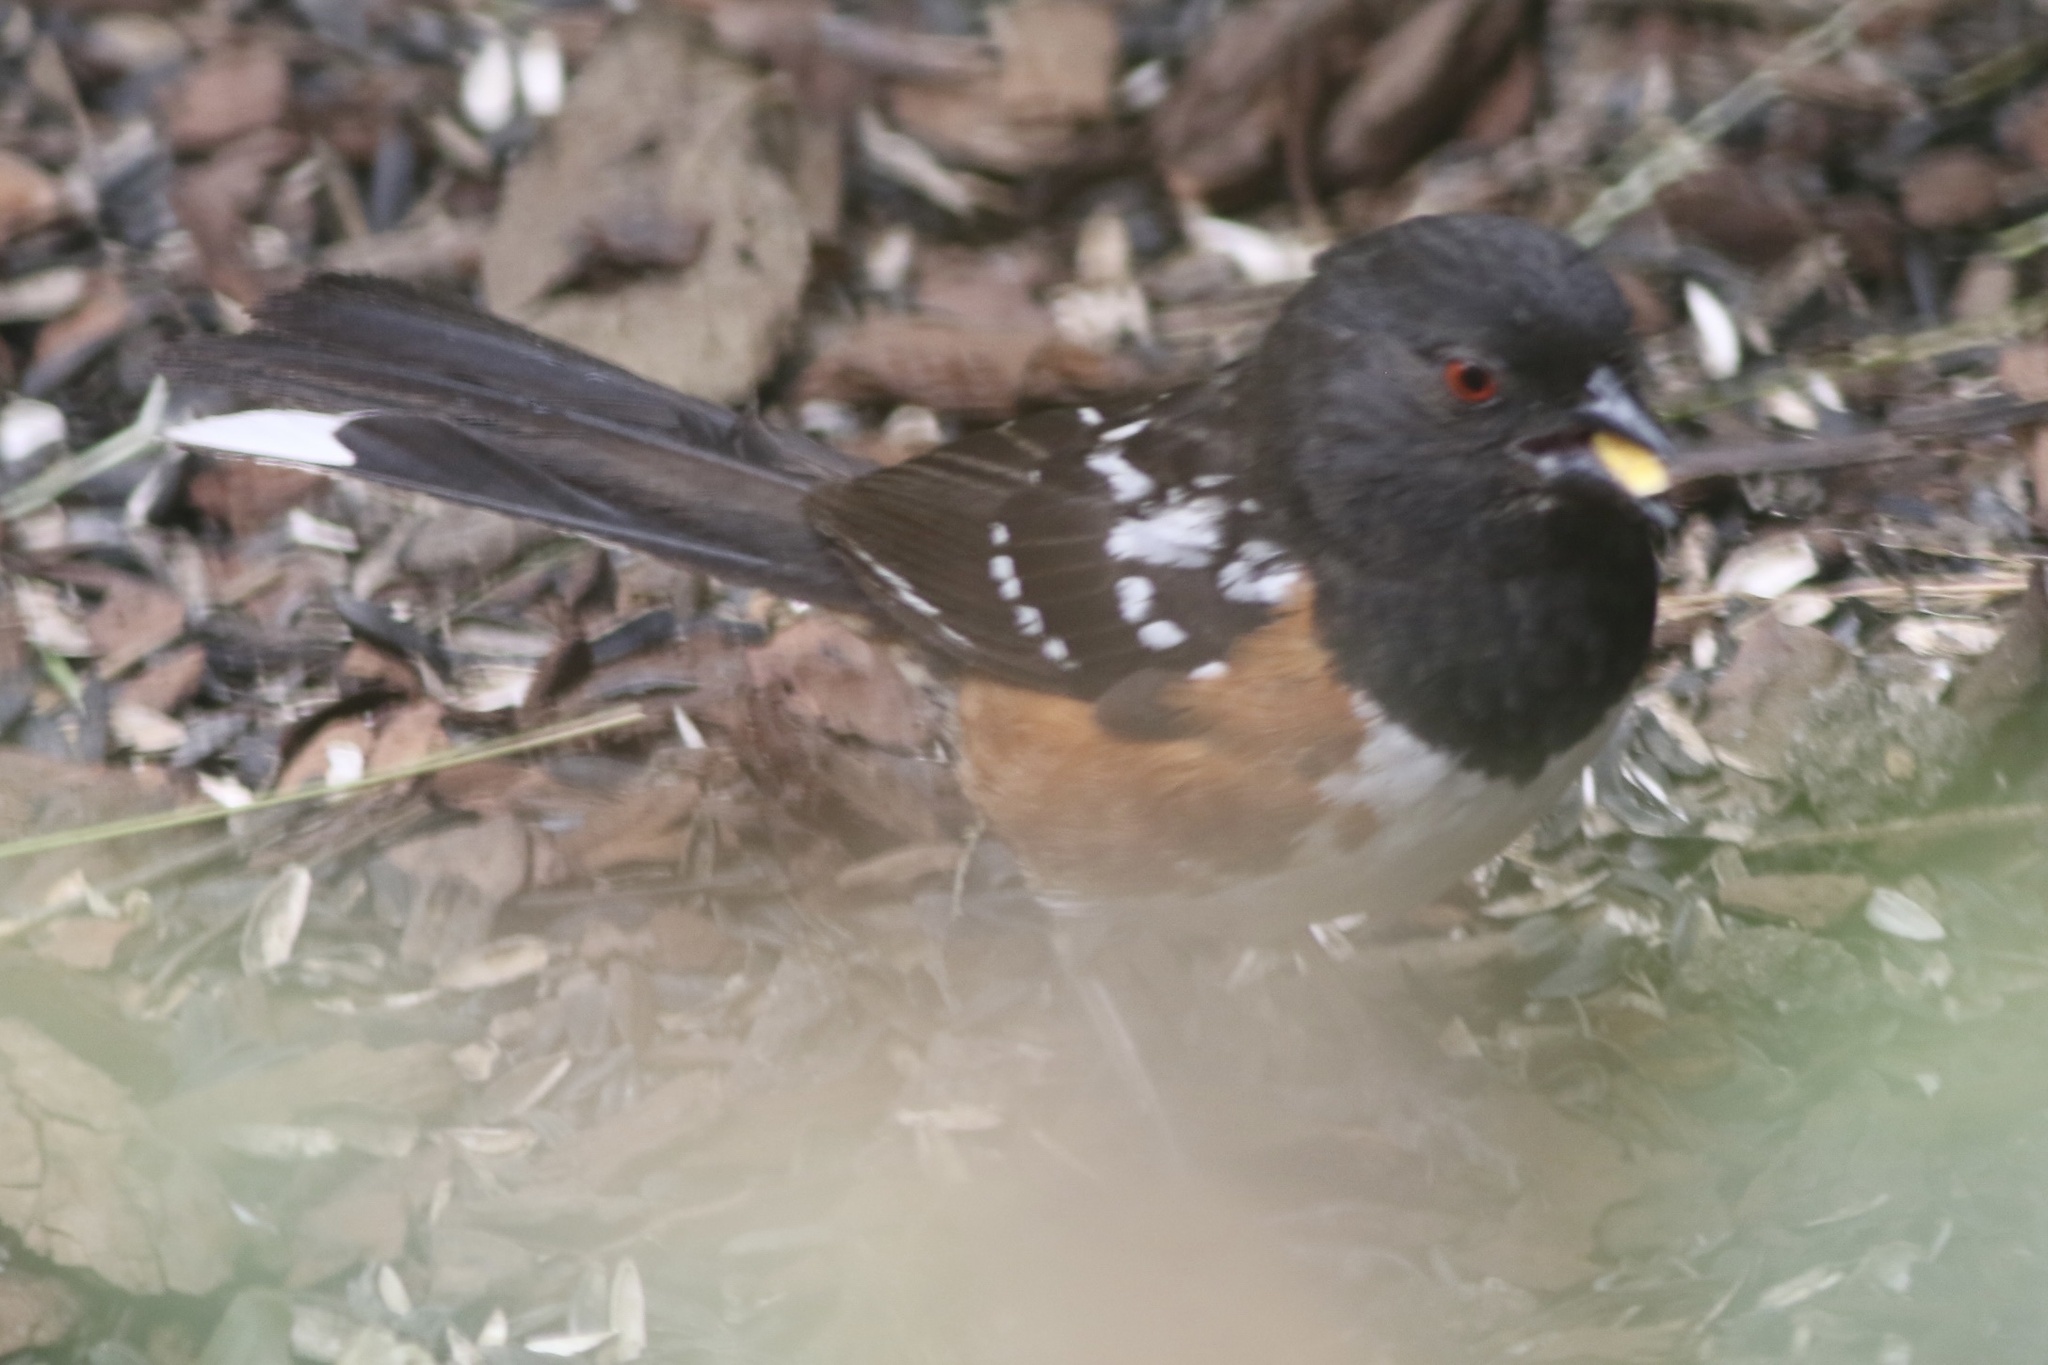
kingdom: Animalia
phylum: Chordata
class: Aves
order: Passeriformes
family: Passerellidae
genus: Pipilo
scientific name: Pipilo maculatus
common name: Spotted towhee
